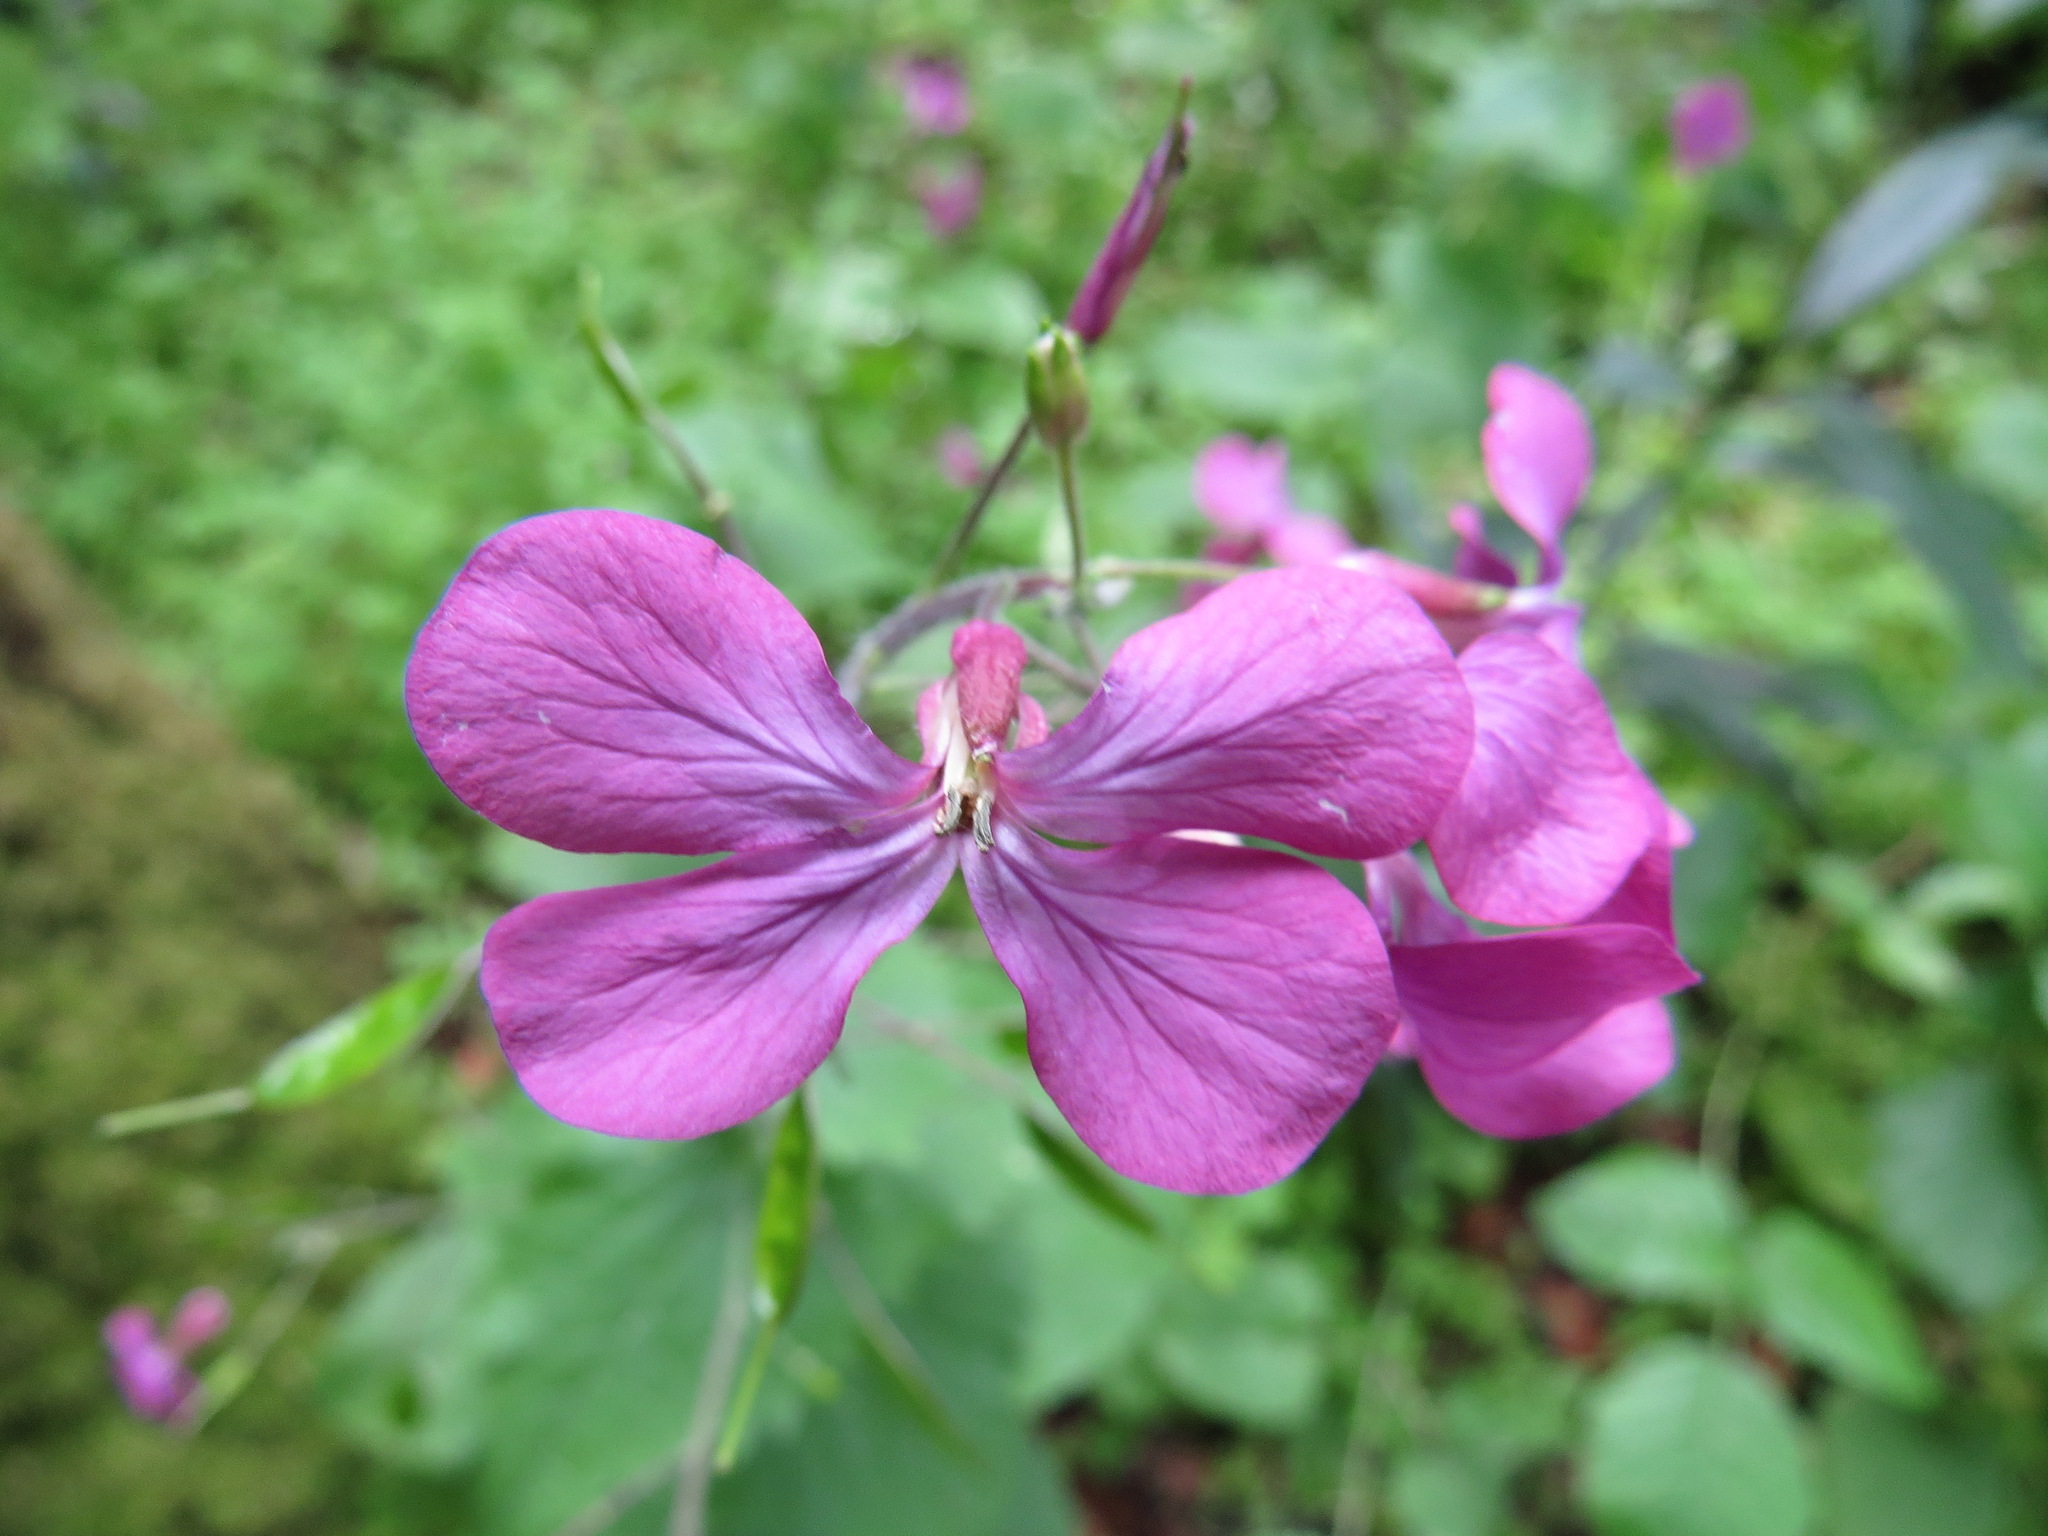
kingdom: Plantae
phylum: Tracheophyta
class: Magnoliopsida
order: Brassicales
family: Brassicaceae
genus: Lunaria
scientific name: Lunaria annua
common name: Honesty
